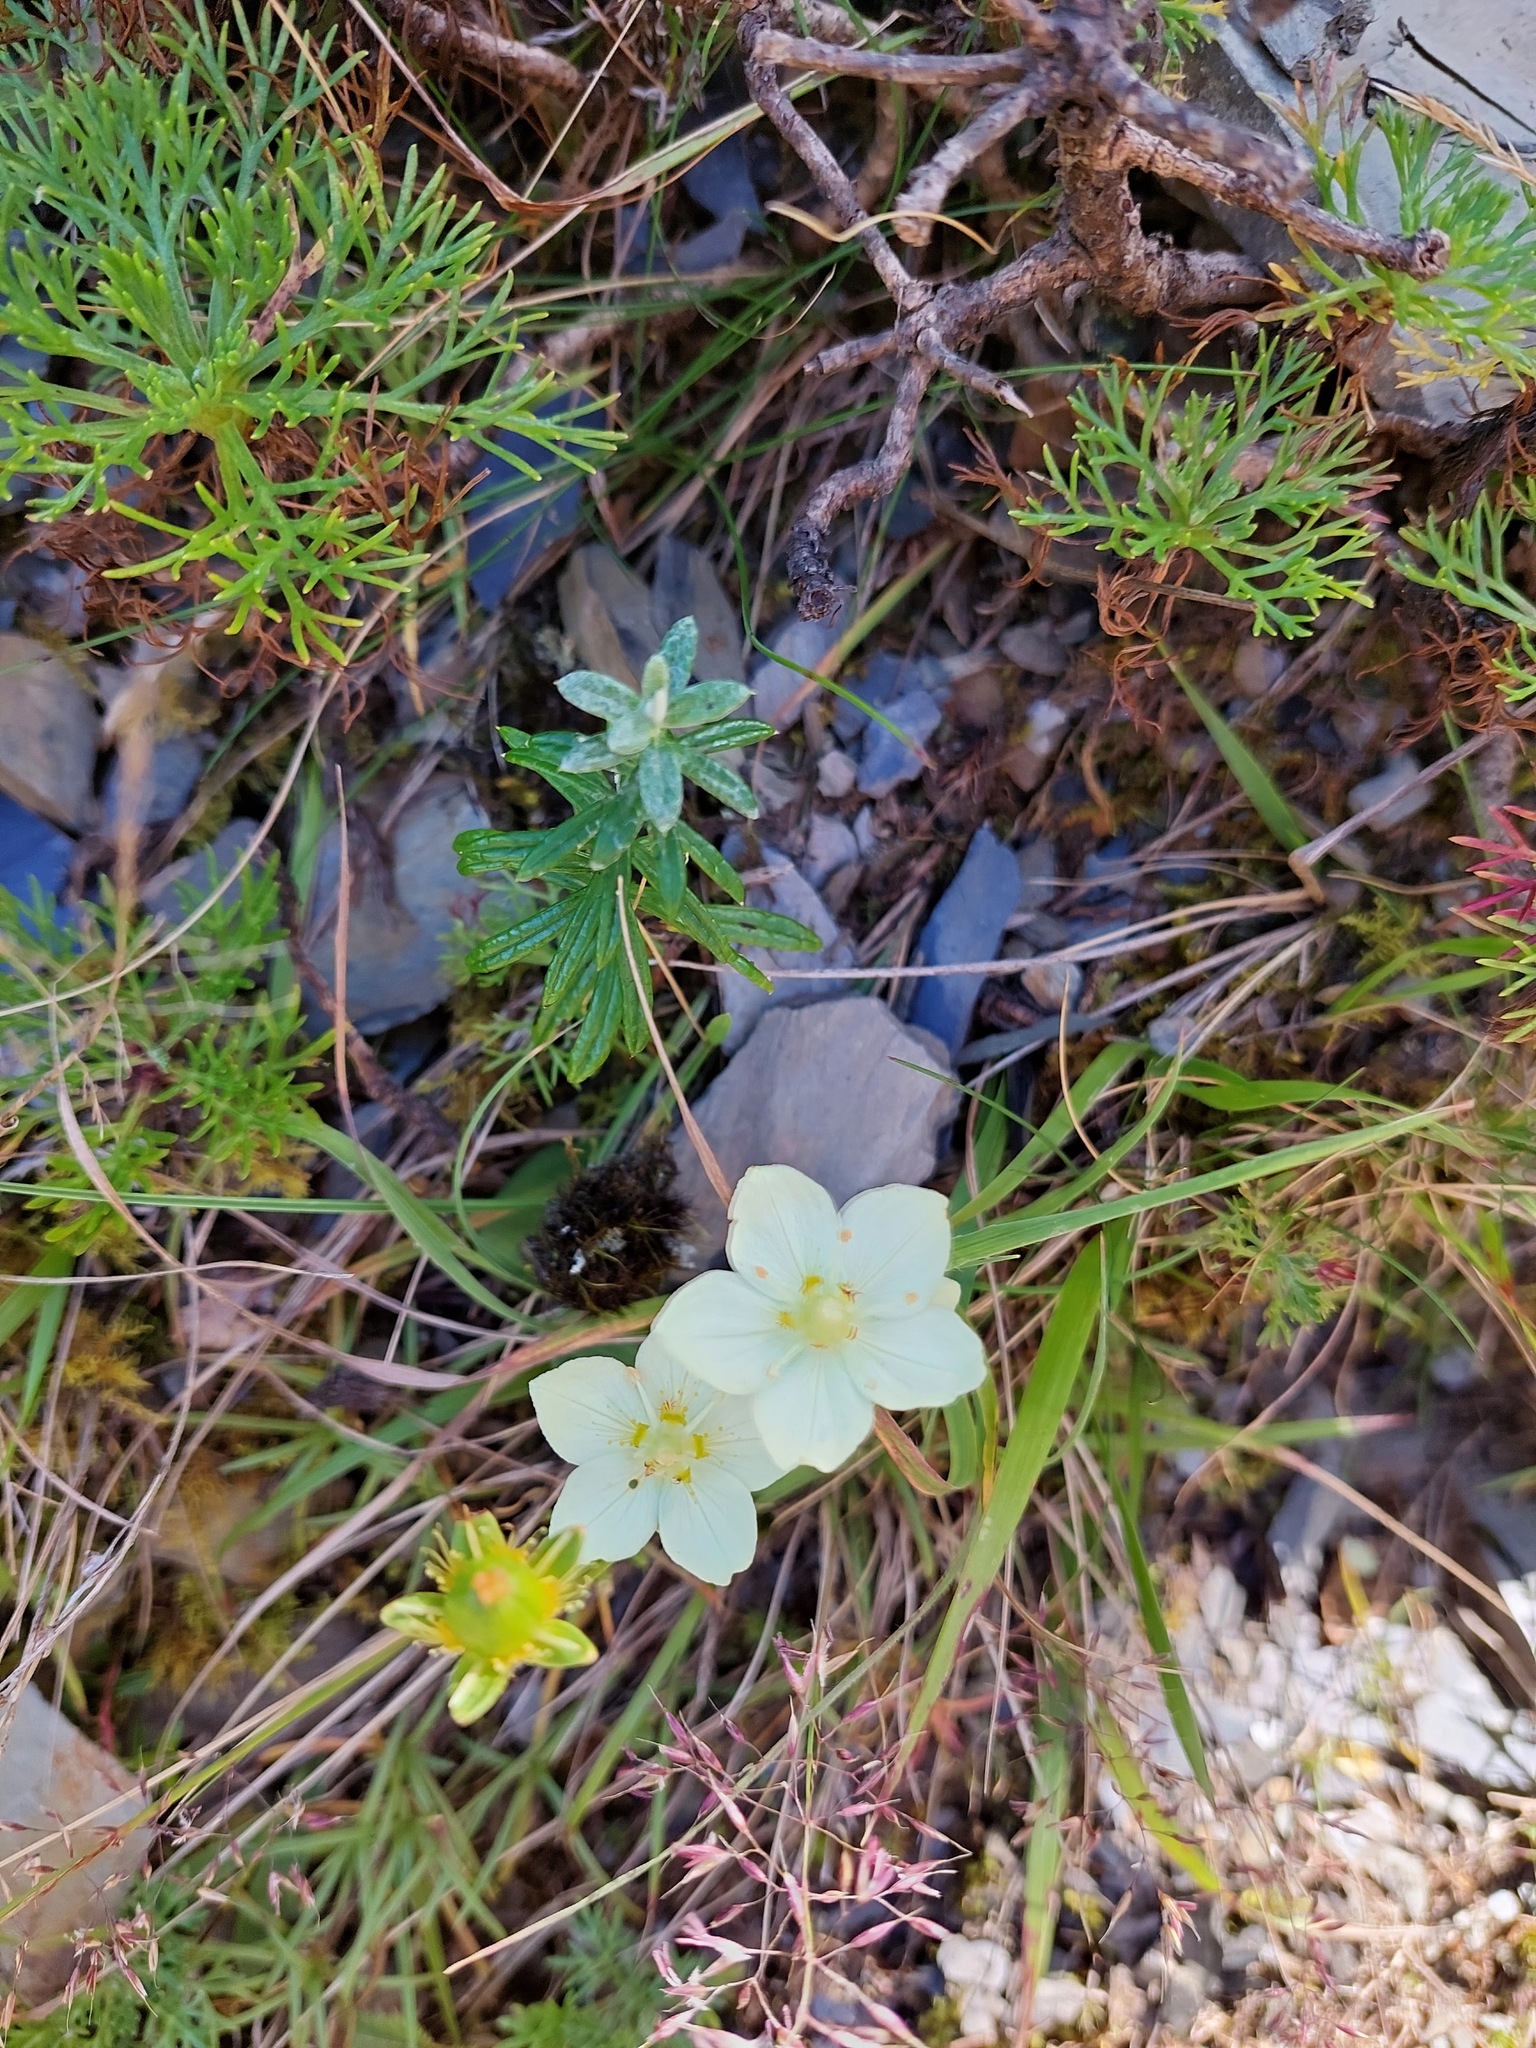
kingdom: Plantae
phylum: Tracheophyta
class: Magnoliopsida
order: Celastrales
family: Parnassiaceae
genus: Parnassia
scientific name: Parnassia palustris
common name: Grass-of-parnassus
